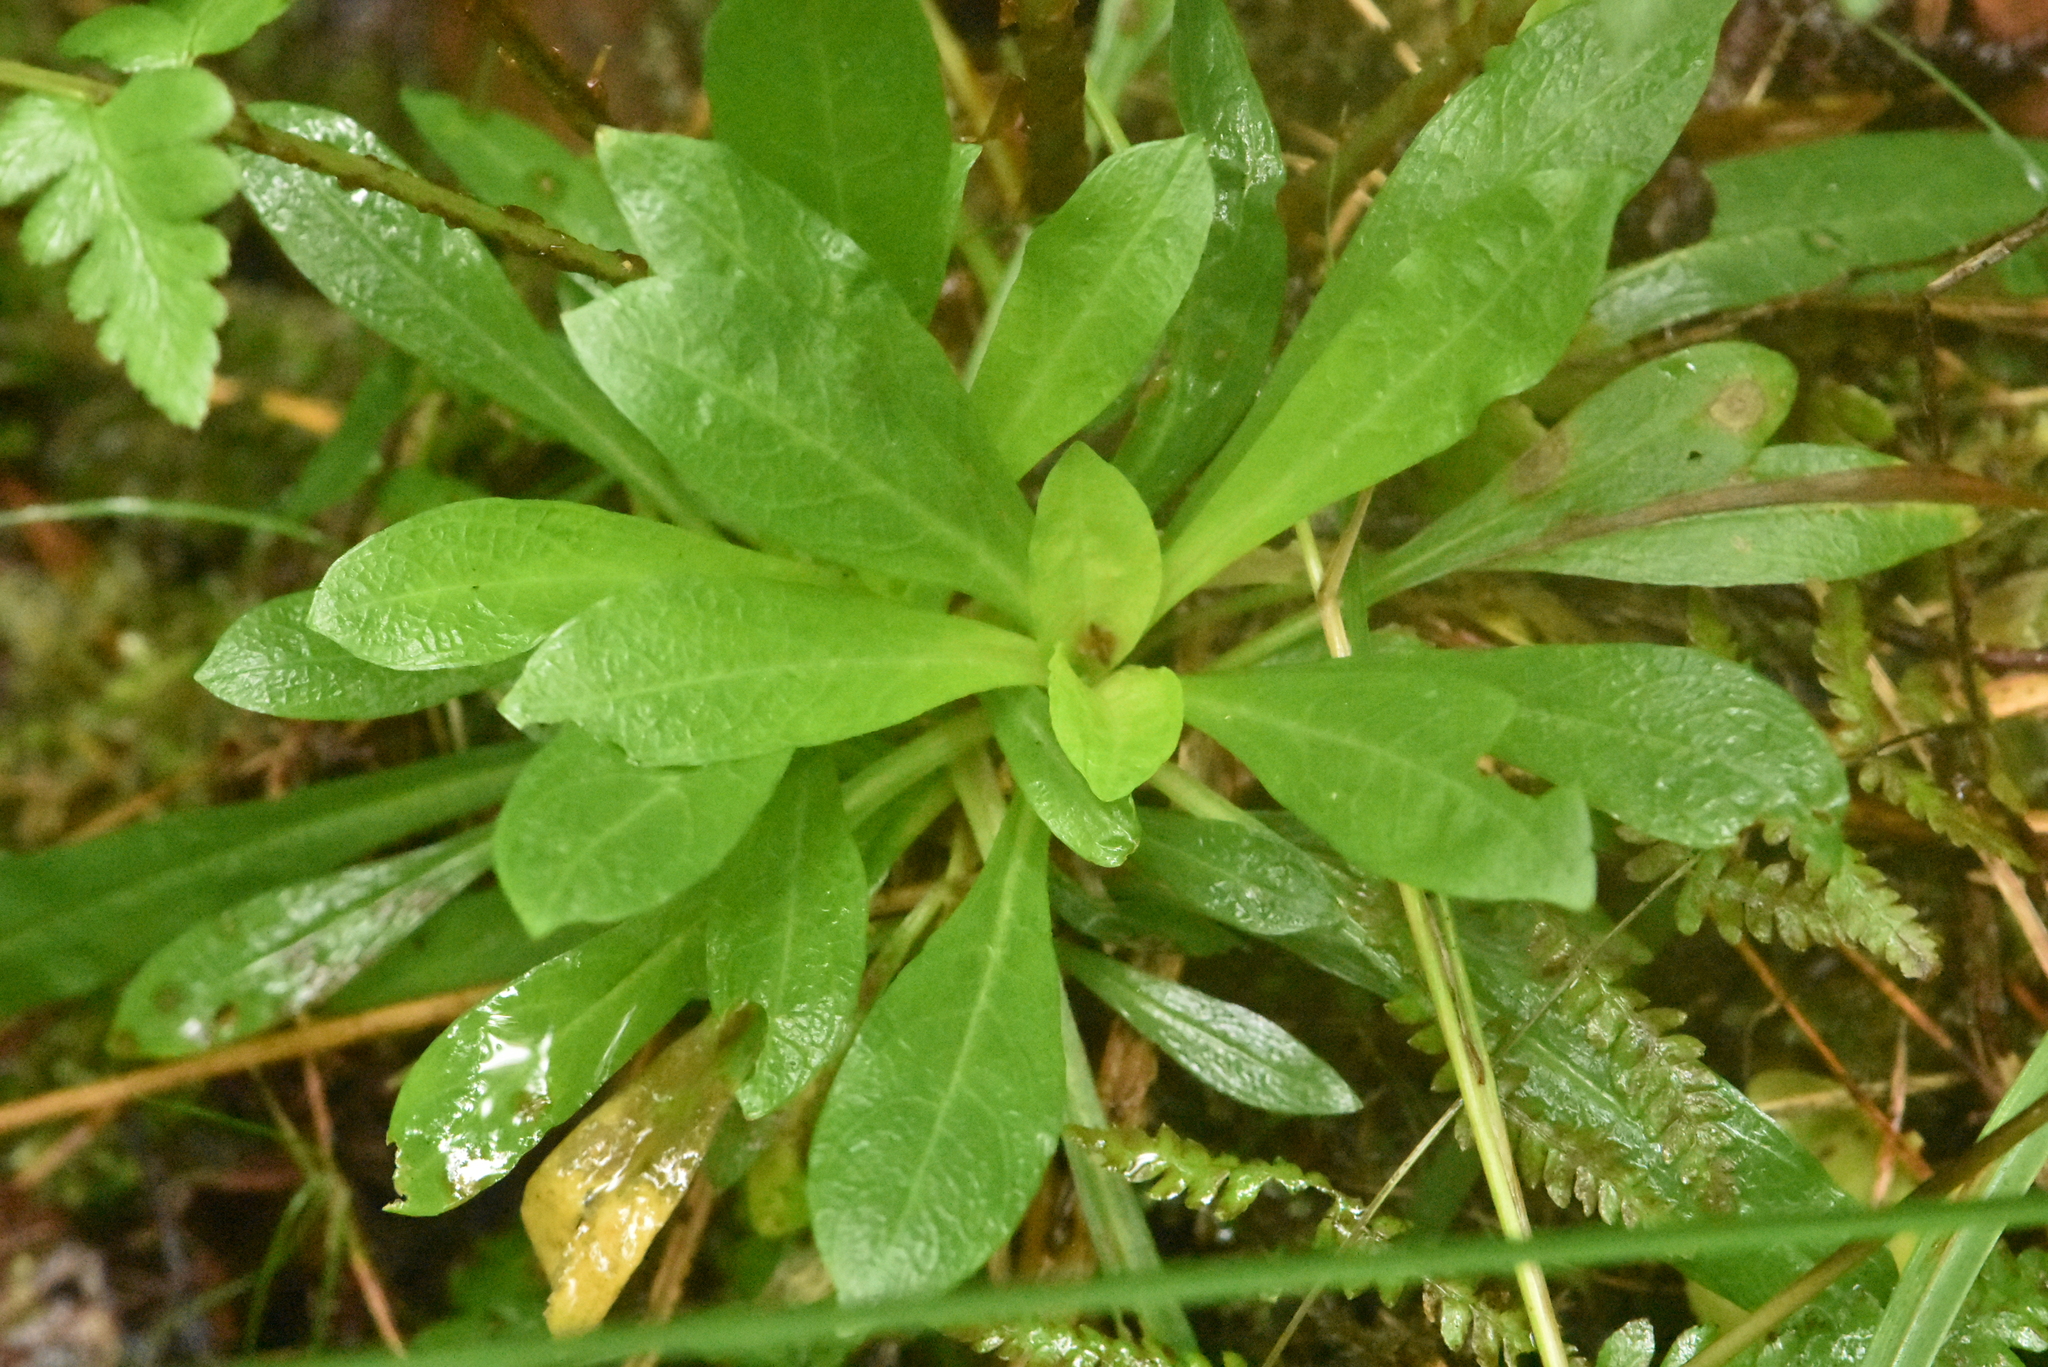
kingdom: Plantae
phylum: Tracheophyta
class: Magnoliopsida
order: Caryophyllales
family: Caryophyllaceae
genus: Silene
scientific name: Silene flos-cuculi
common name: Ragged-robin
